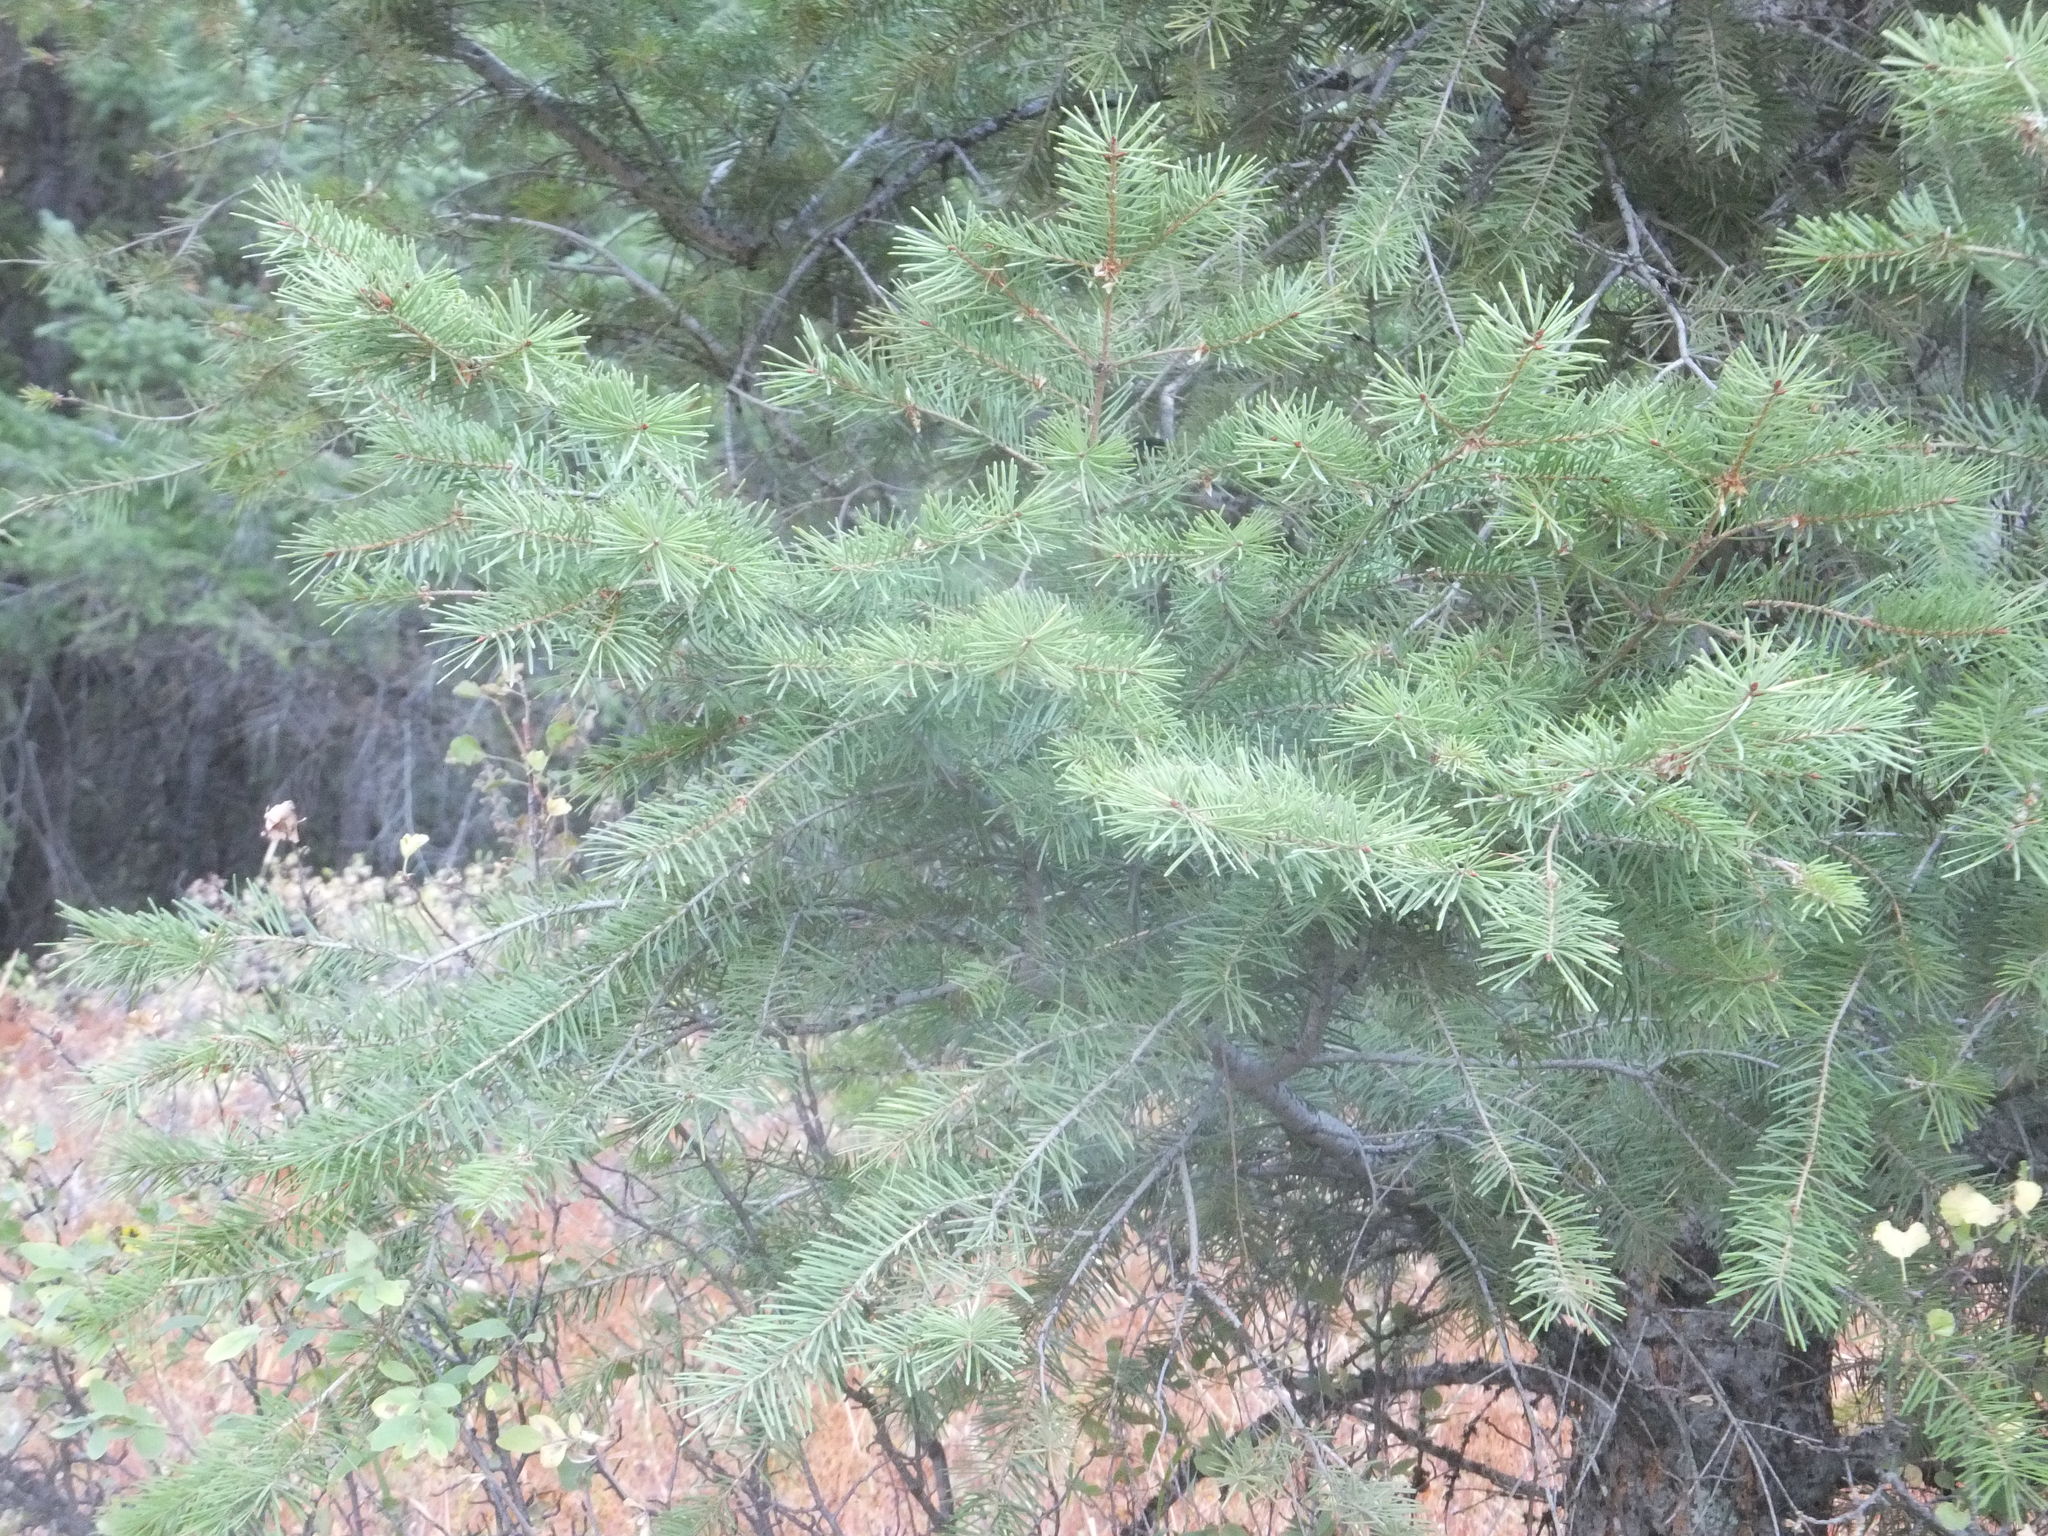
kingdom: Plantae
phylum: Tracheophyta
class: Pinopsida
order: Pinales
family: Pinaceae
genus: Pseudotsuga
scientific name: Pseudotsuga menziesii
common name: Douglas fir
